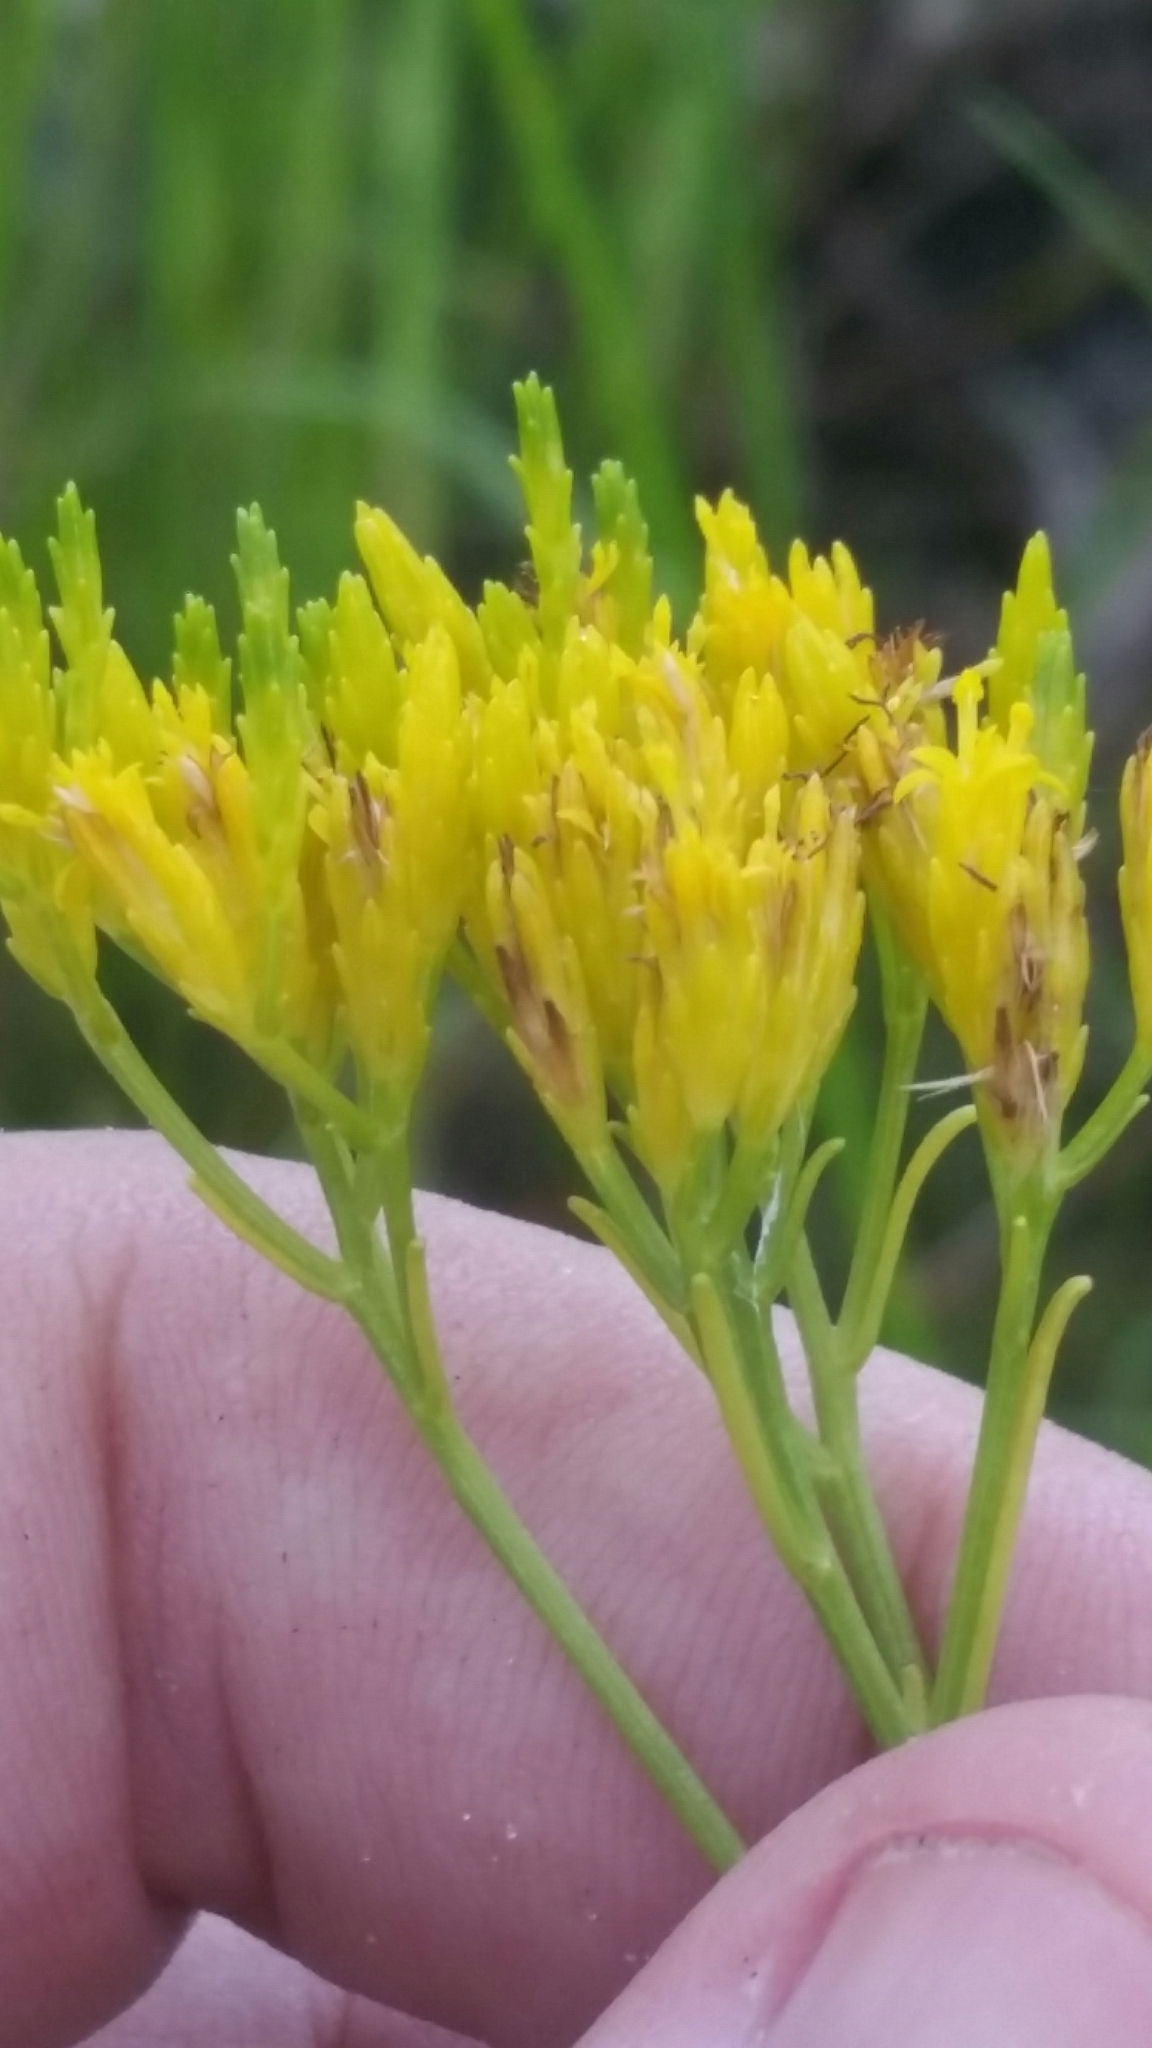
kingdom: Plantae
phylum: Tracheophyta
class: Magnoliopsida
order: Asterales
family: Asteraceae
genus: Bigelowia
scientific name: Bigelowia australis
